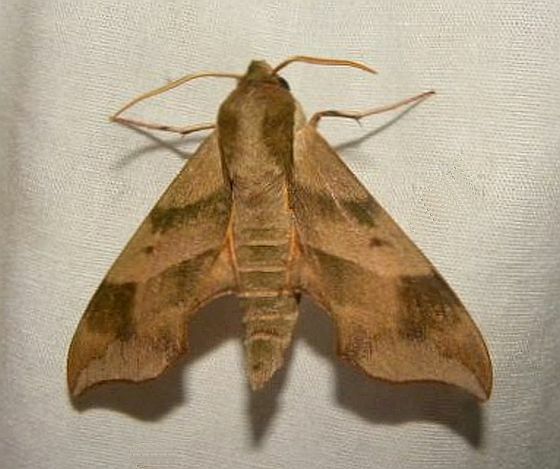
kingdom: Animalia
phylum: Arthropoda
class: Insecta
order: Lepidoptera
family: Sphingidae
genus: Darapsa
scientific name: Darapsa myron
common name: Hog sphinx
